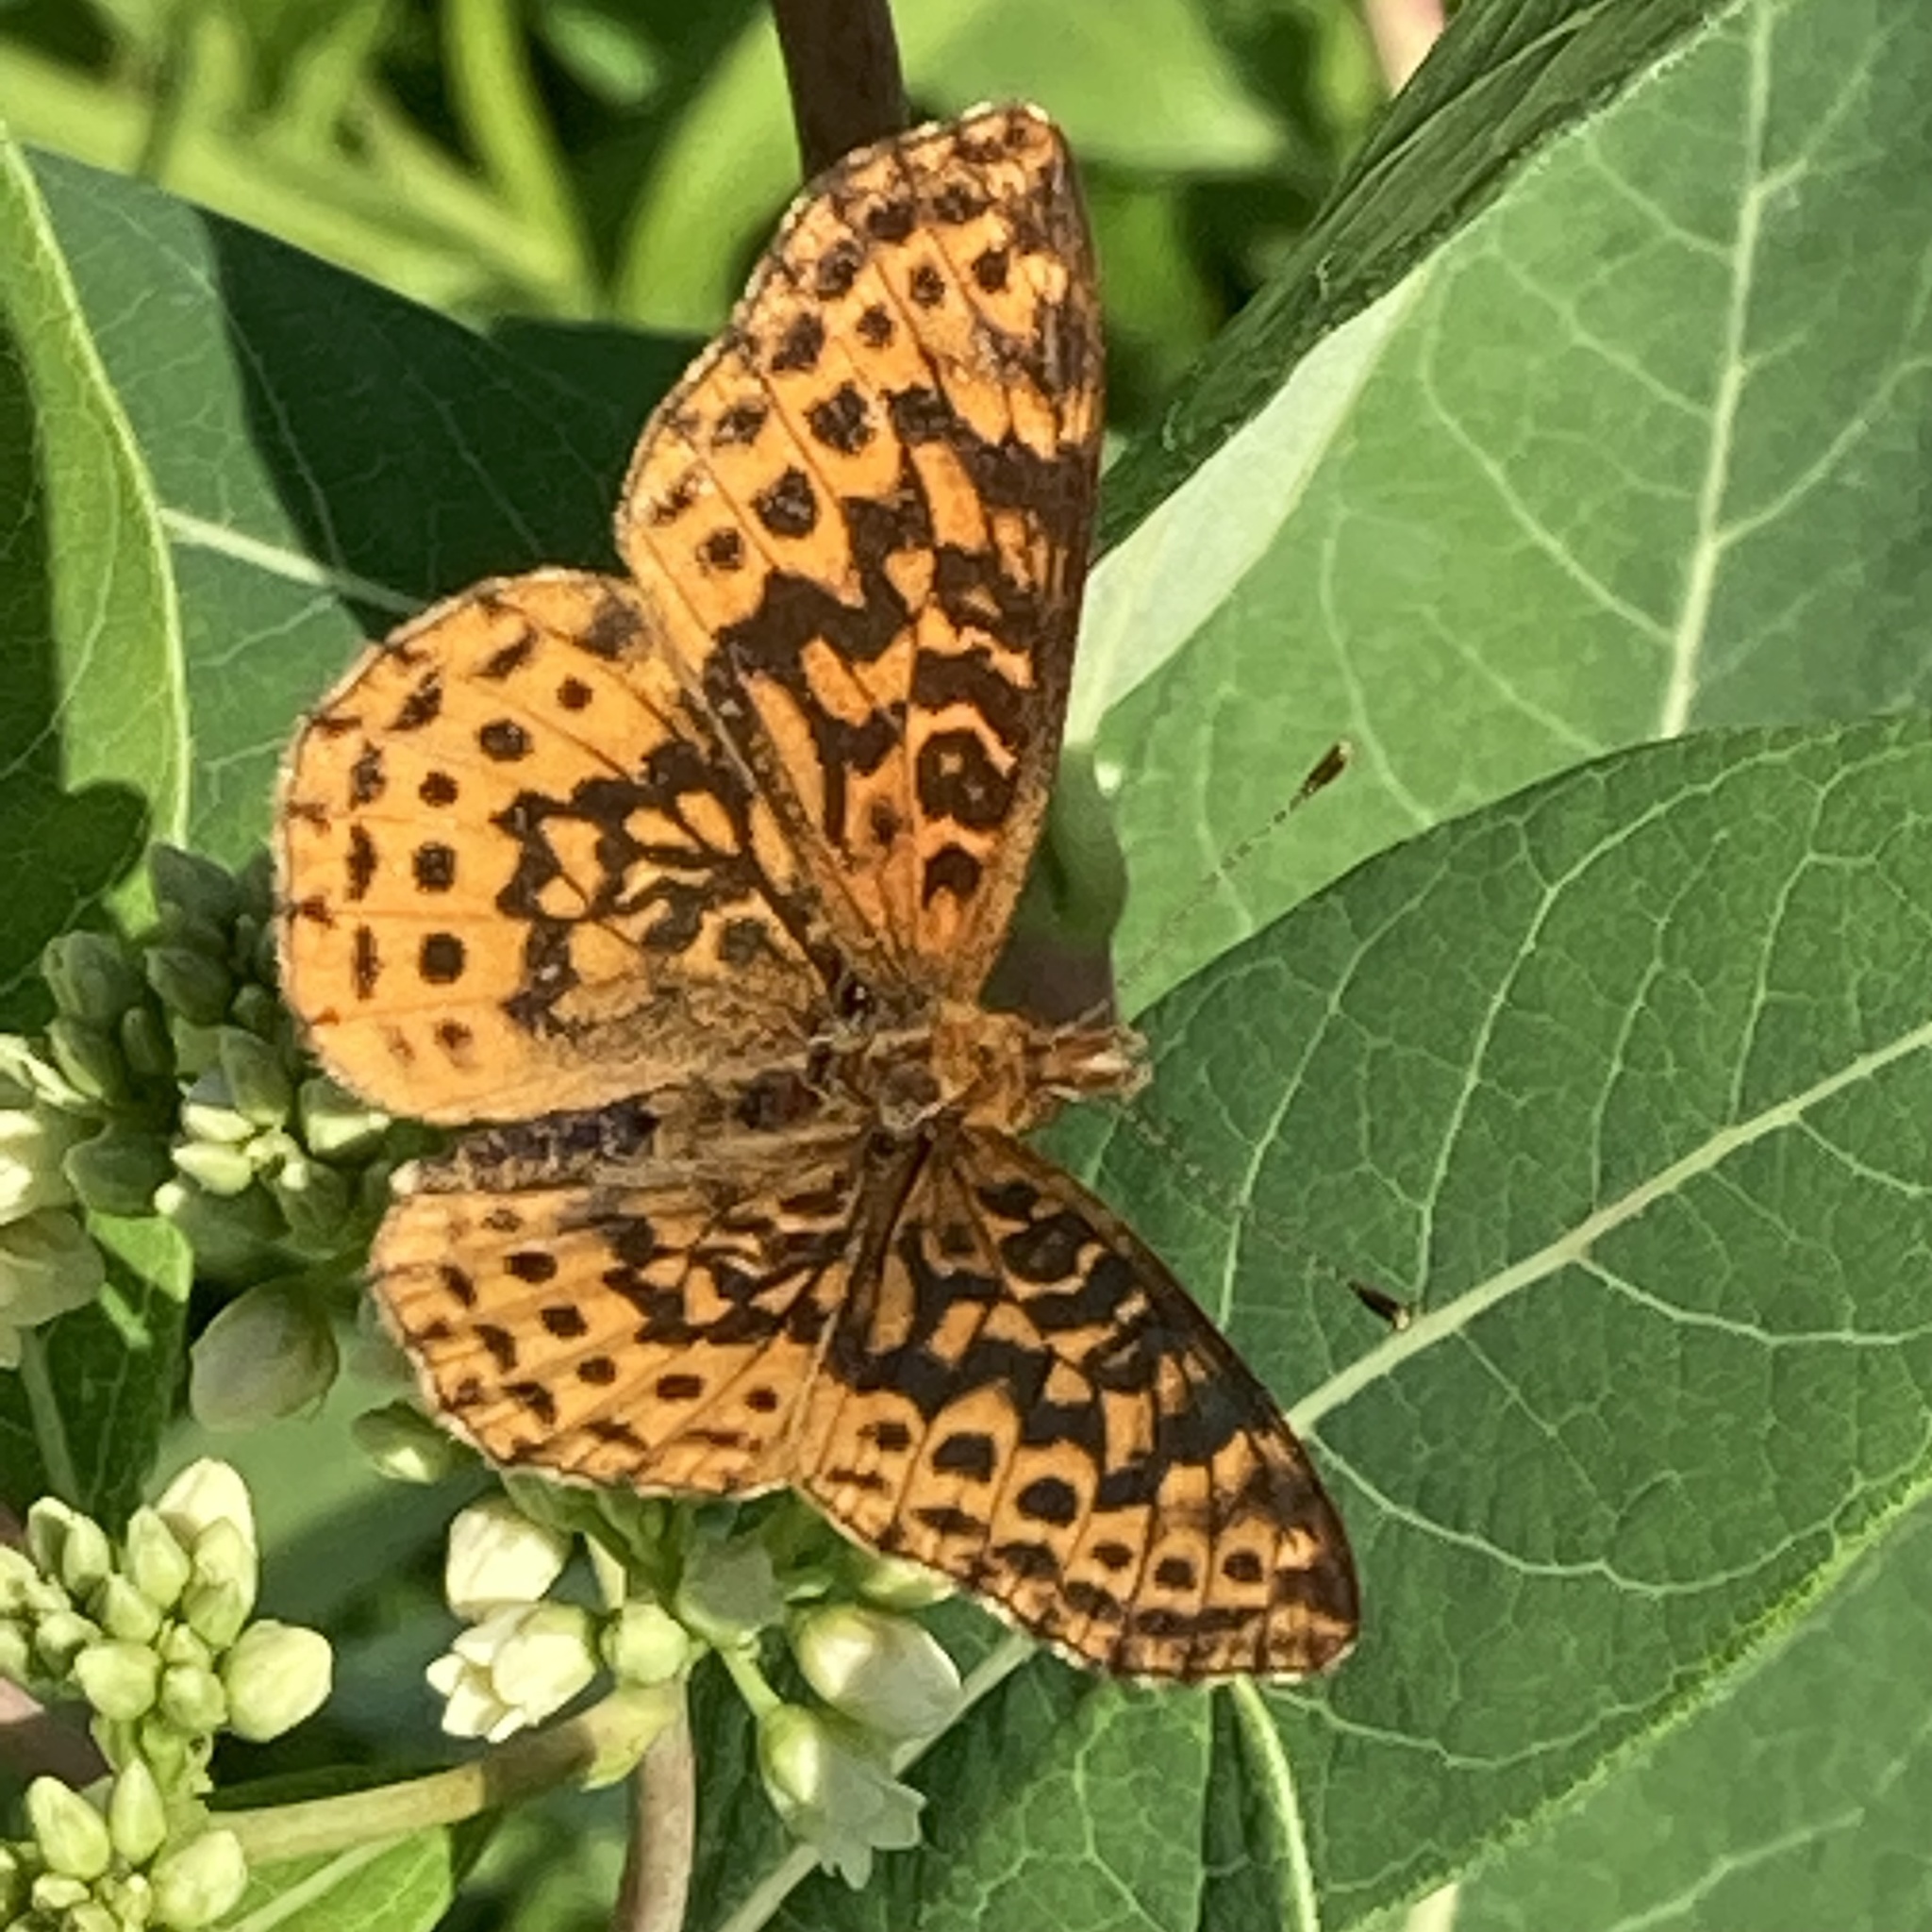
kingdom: Animalia
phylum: Arthropoda
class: Insecta
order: Lepidoptera
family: Nymphalidae
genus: Clossiana
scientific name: Clossiana toddi
